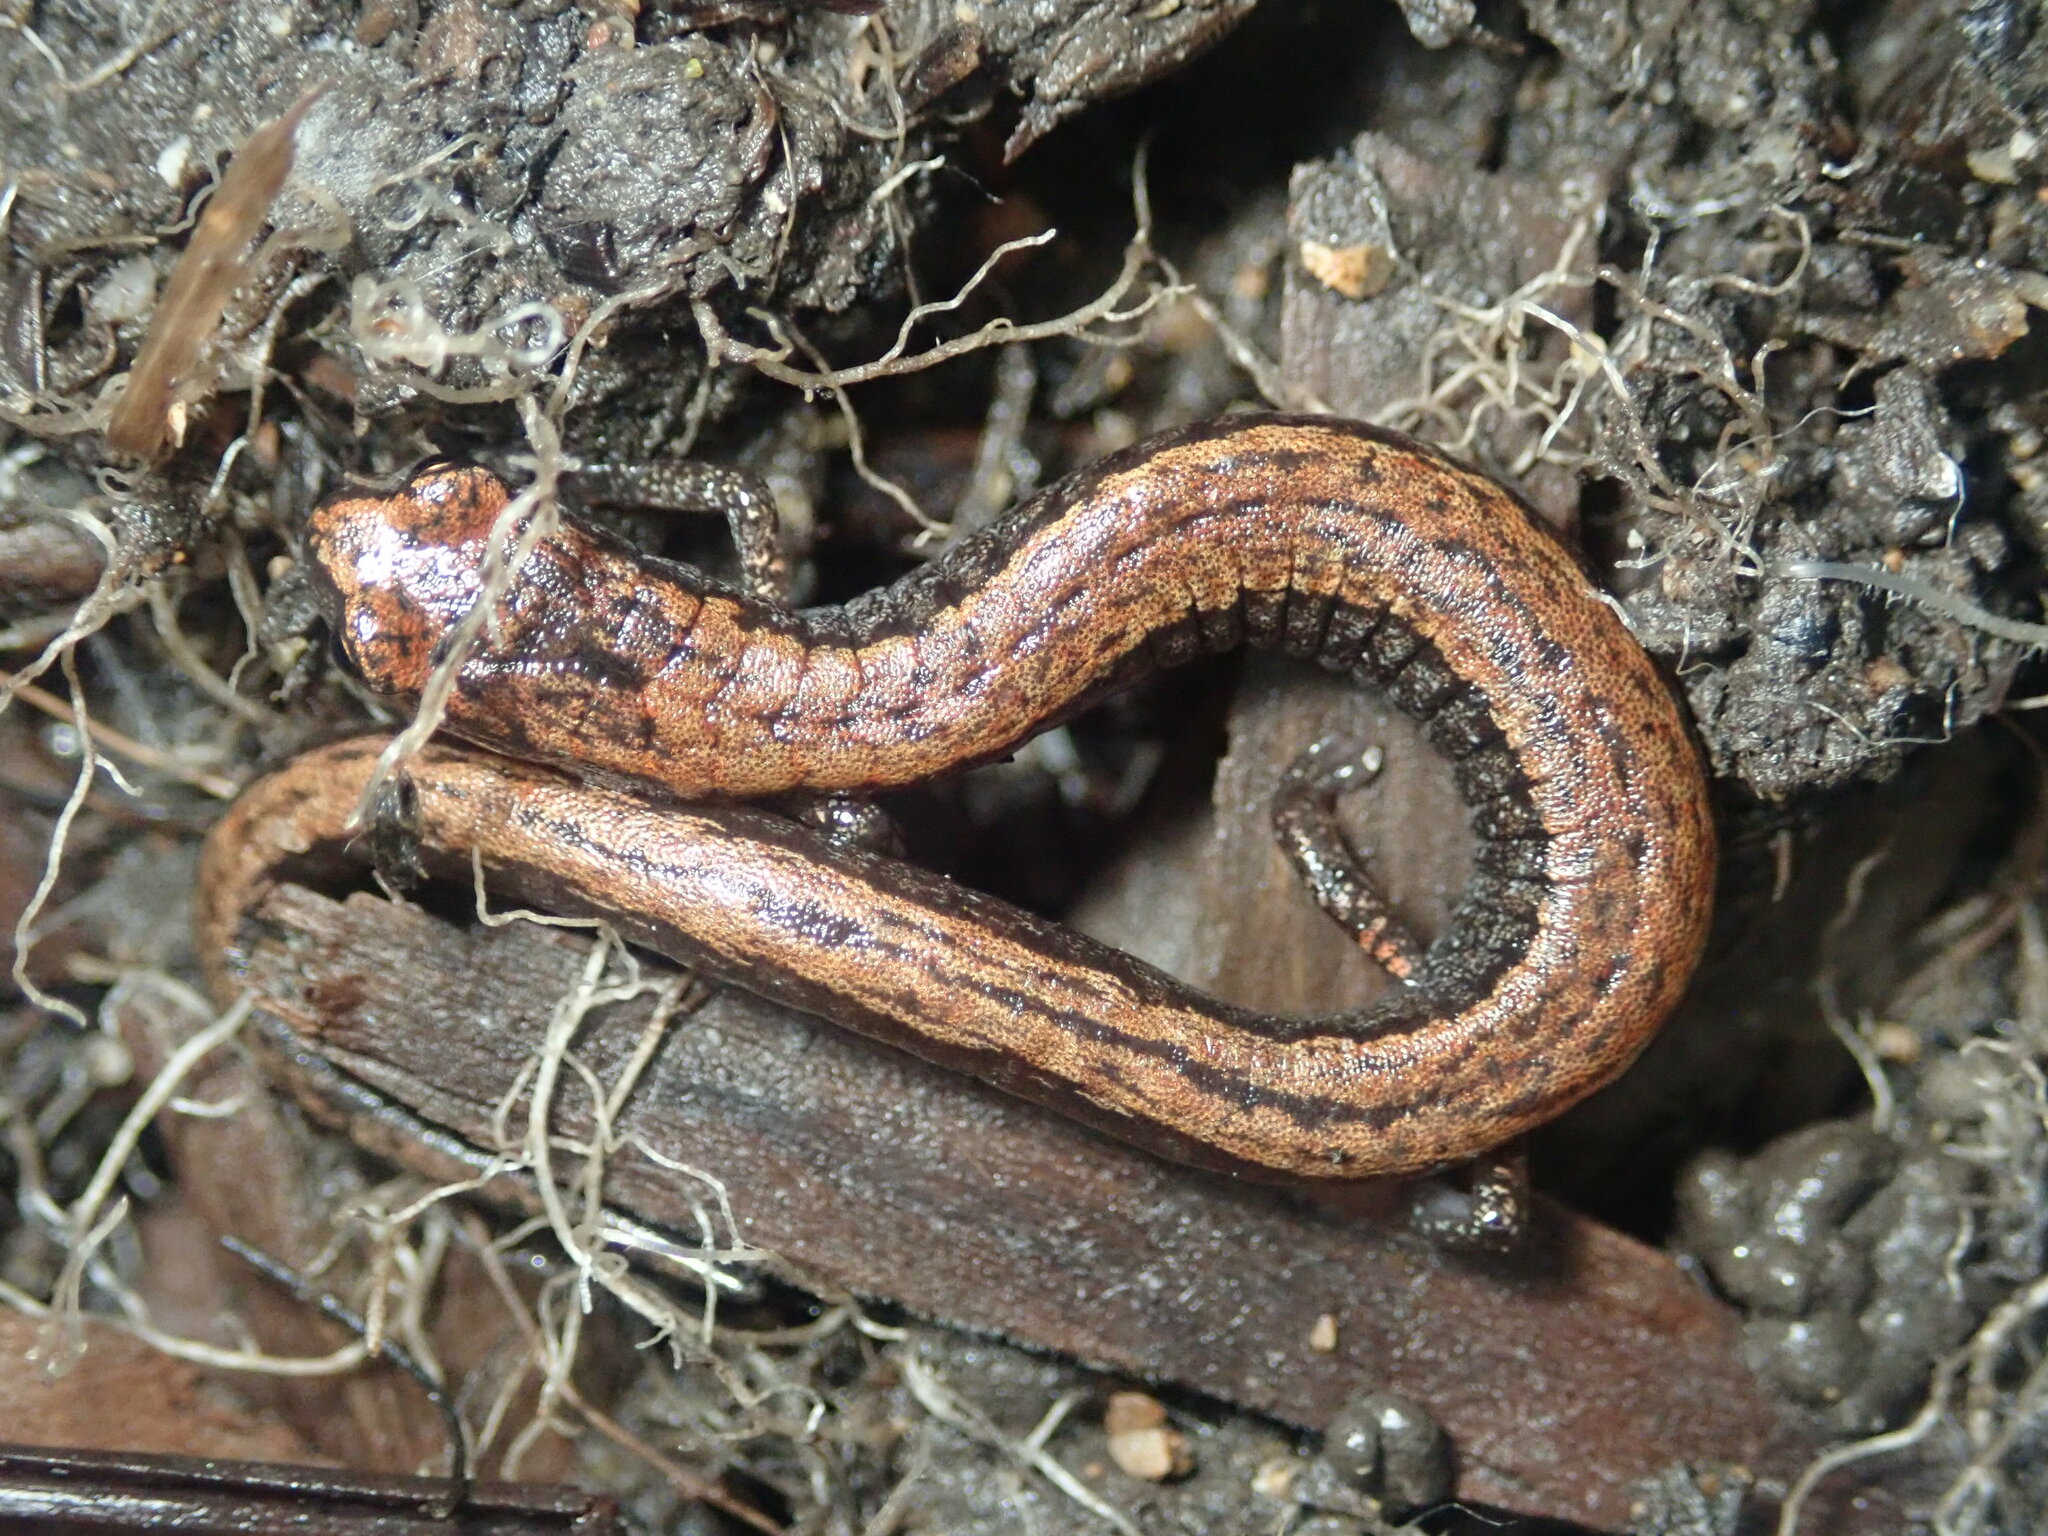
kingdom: Animalia
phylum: Chordata
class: Amphibia
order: Caudata
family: Plethodontidae
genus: Batrachoseps
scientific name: Batrachoseps attenuatus
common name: California slender salamander
